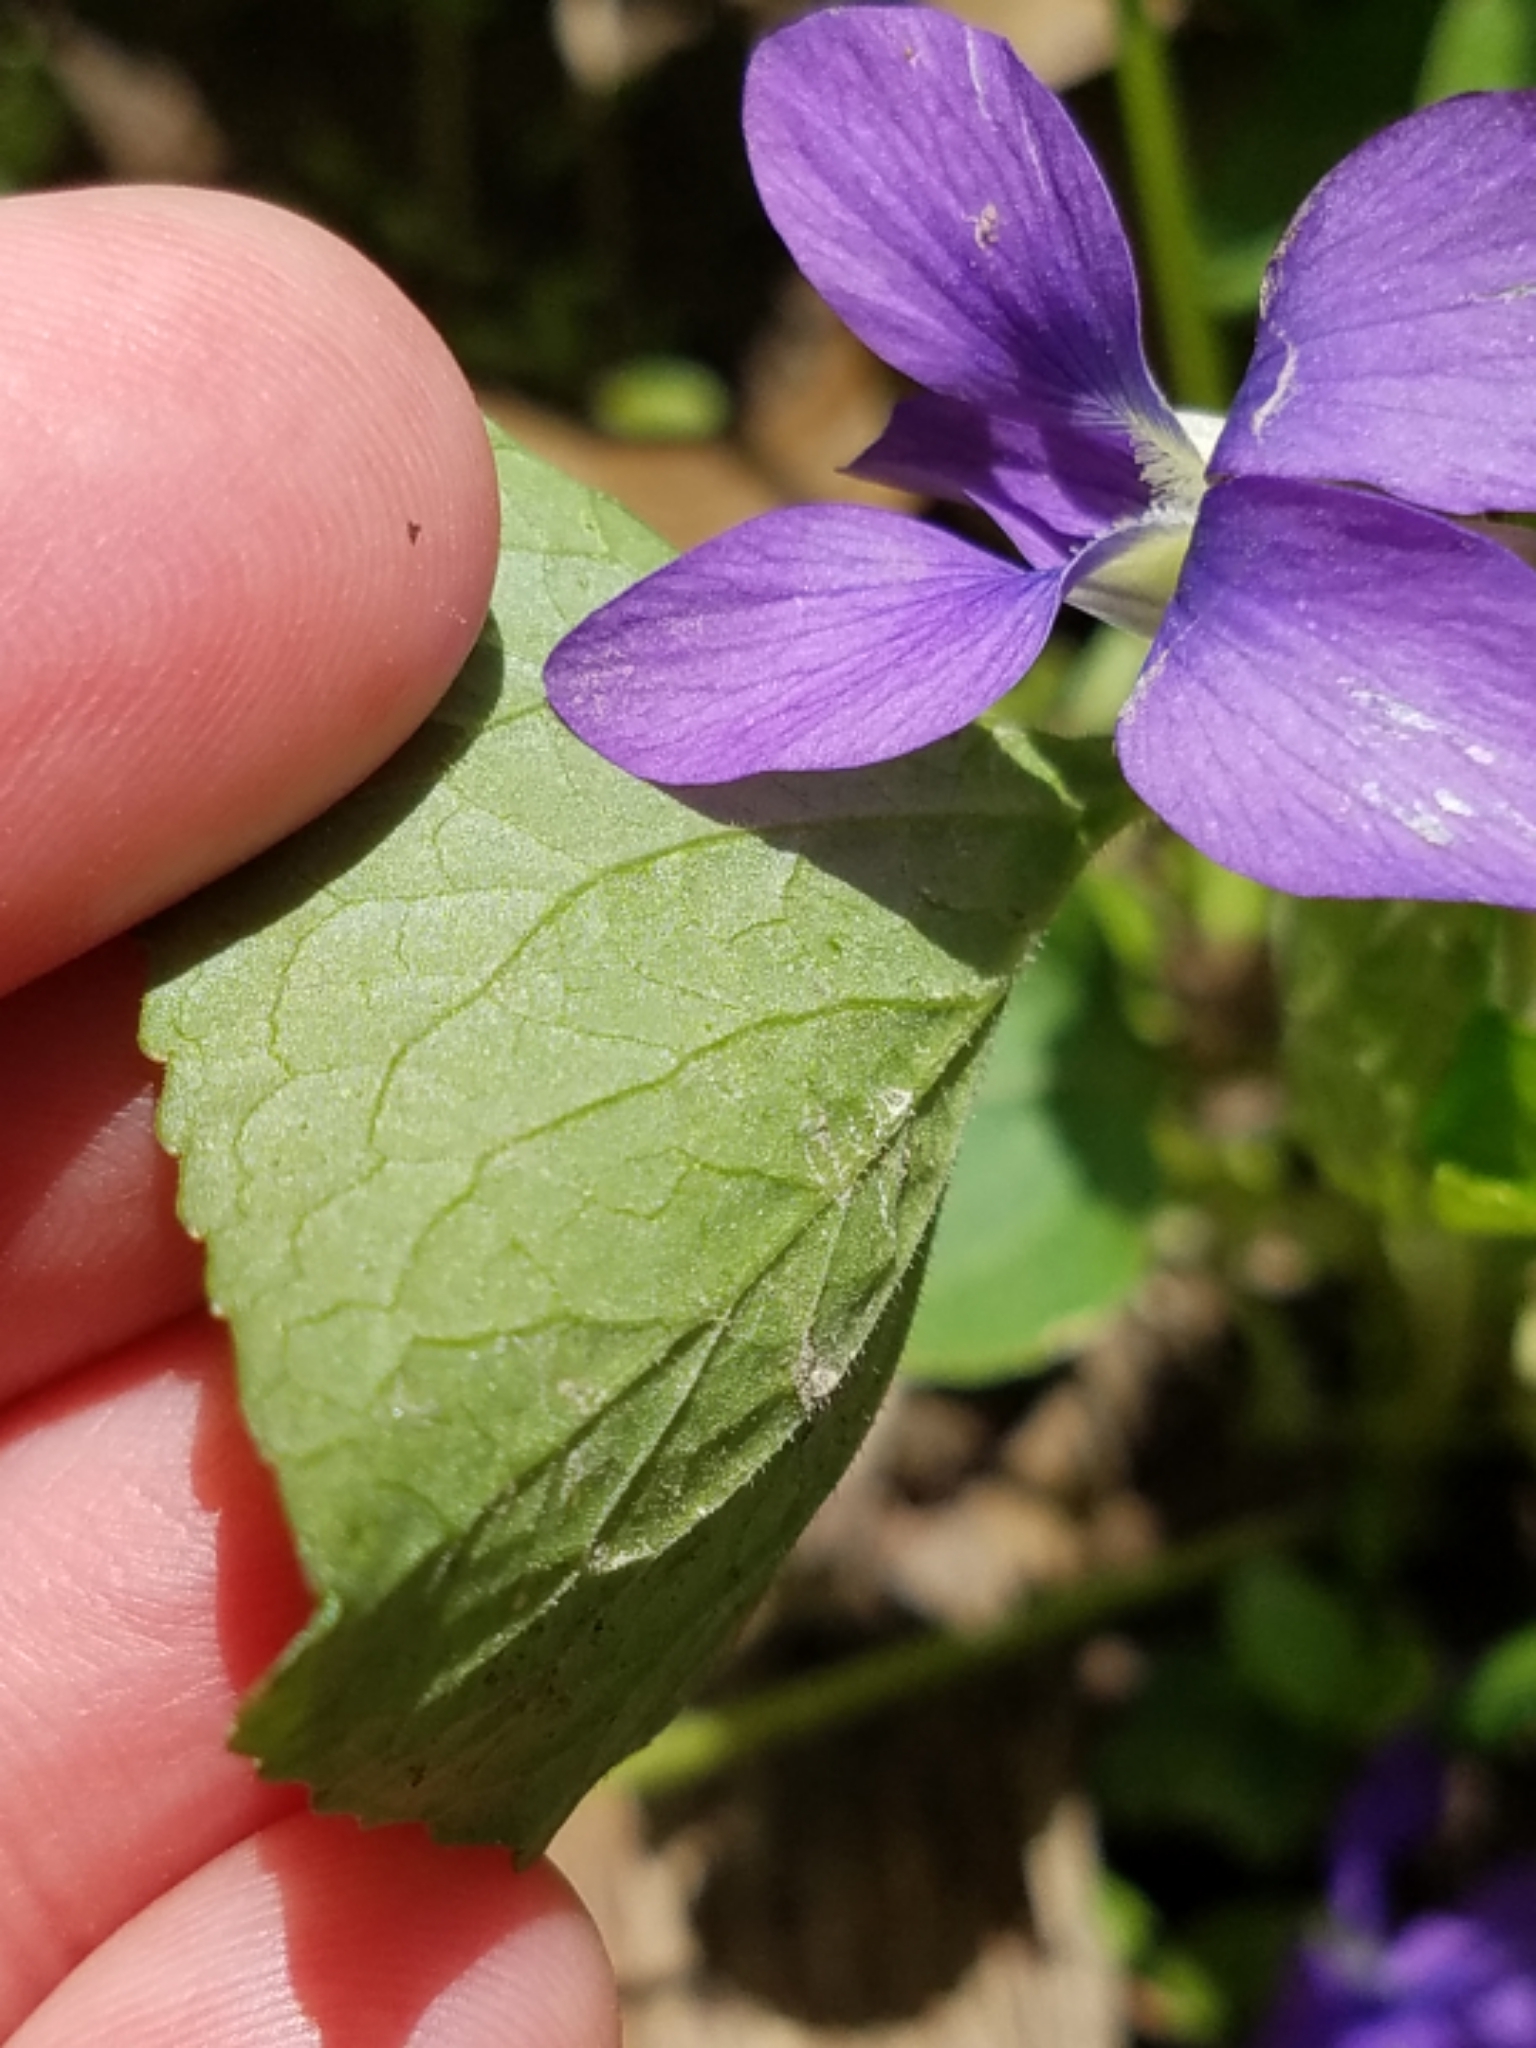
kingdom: Plantae
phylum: Tracheophyta
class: Magnoliopsida
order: Malpighiales
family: Violaceae
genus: Viola
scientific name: Viola sororia
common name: Dooryard violet
